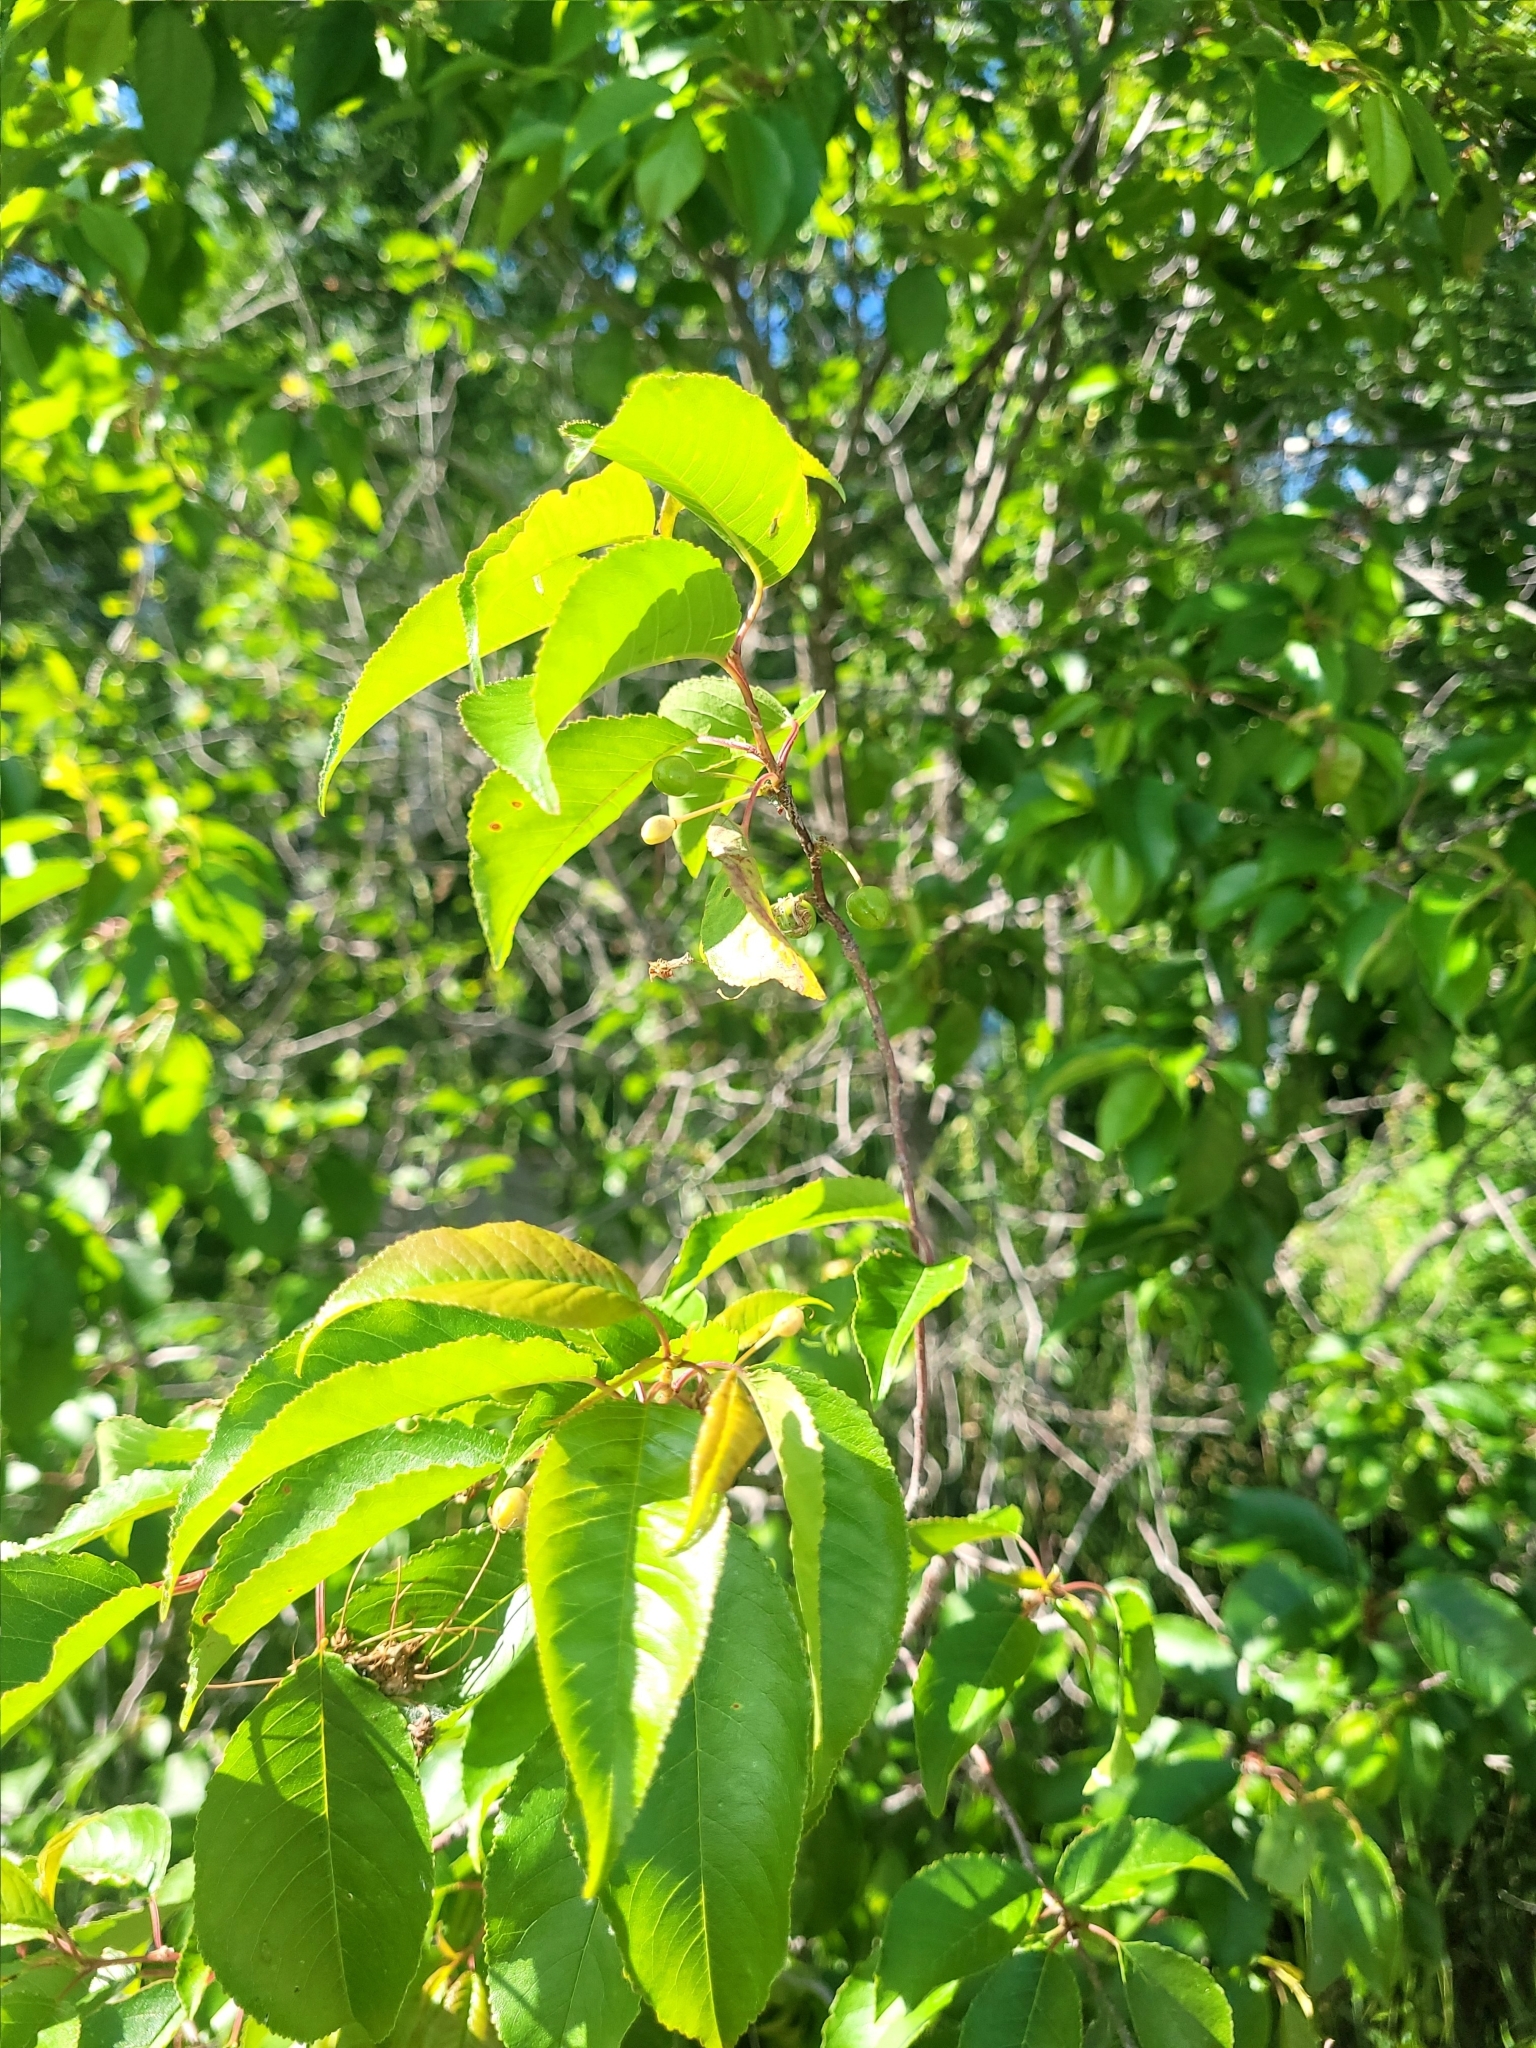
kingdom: Plantae
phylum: Tracheophyta
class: Magnoliopsida
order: Rosales
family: Rosaceae
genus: Prunus
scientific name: Prunus pensylvanica
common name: Pin cherry
